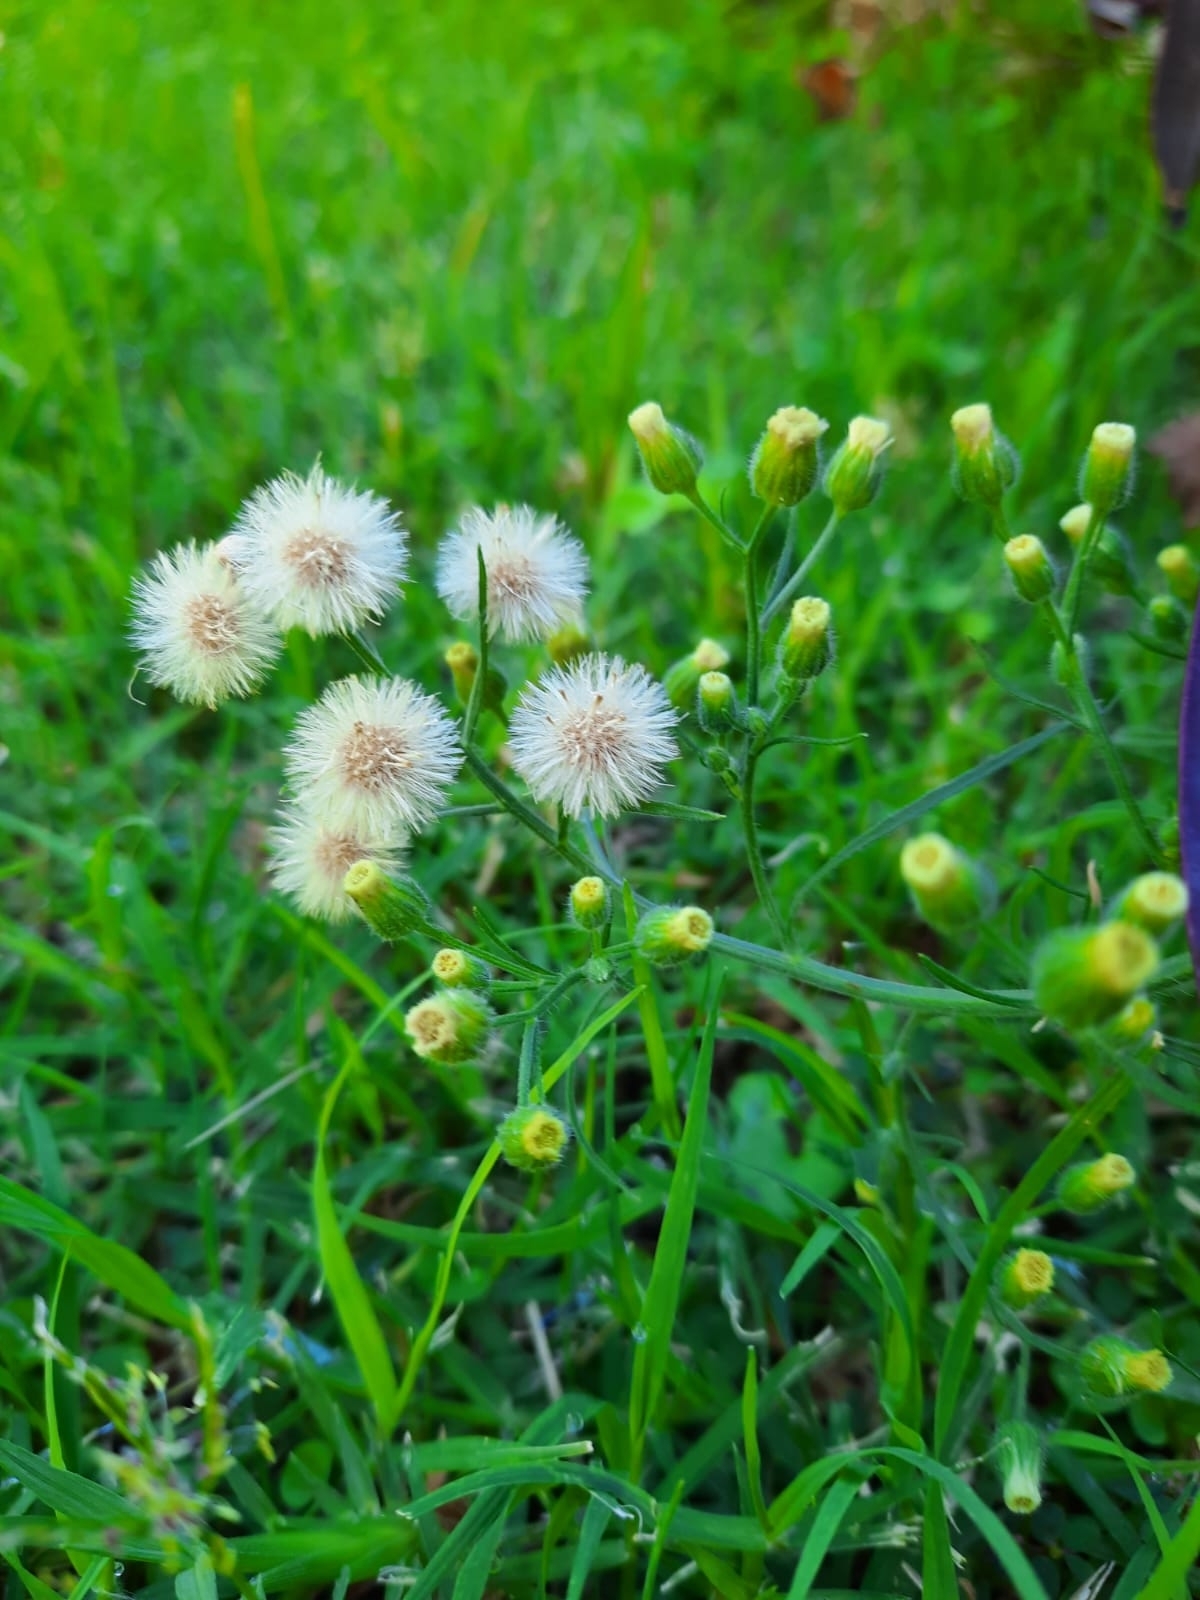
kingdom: Plantae
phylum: Tracheophyta
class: Magnoliopsida
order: Asterales
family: Asteraceae
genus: Erigeron
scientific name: Erigeron bonariensis
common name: Argentine fleabane
